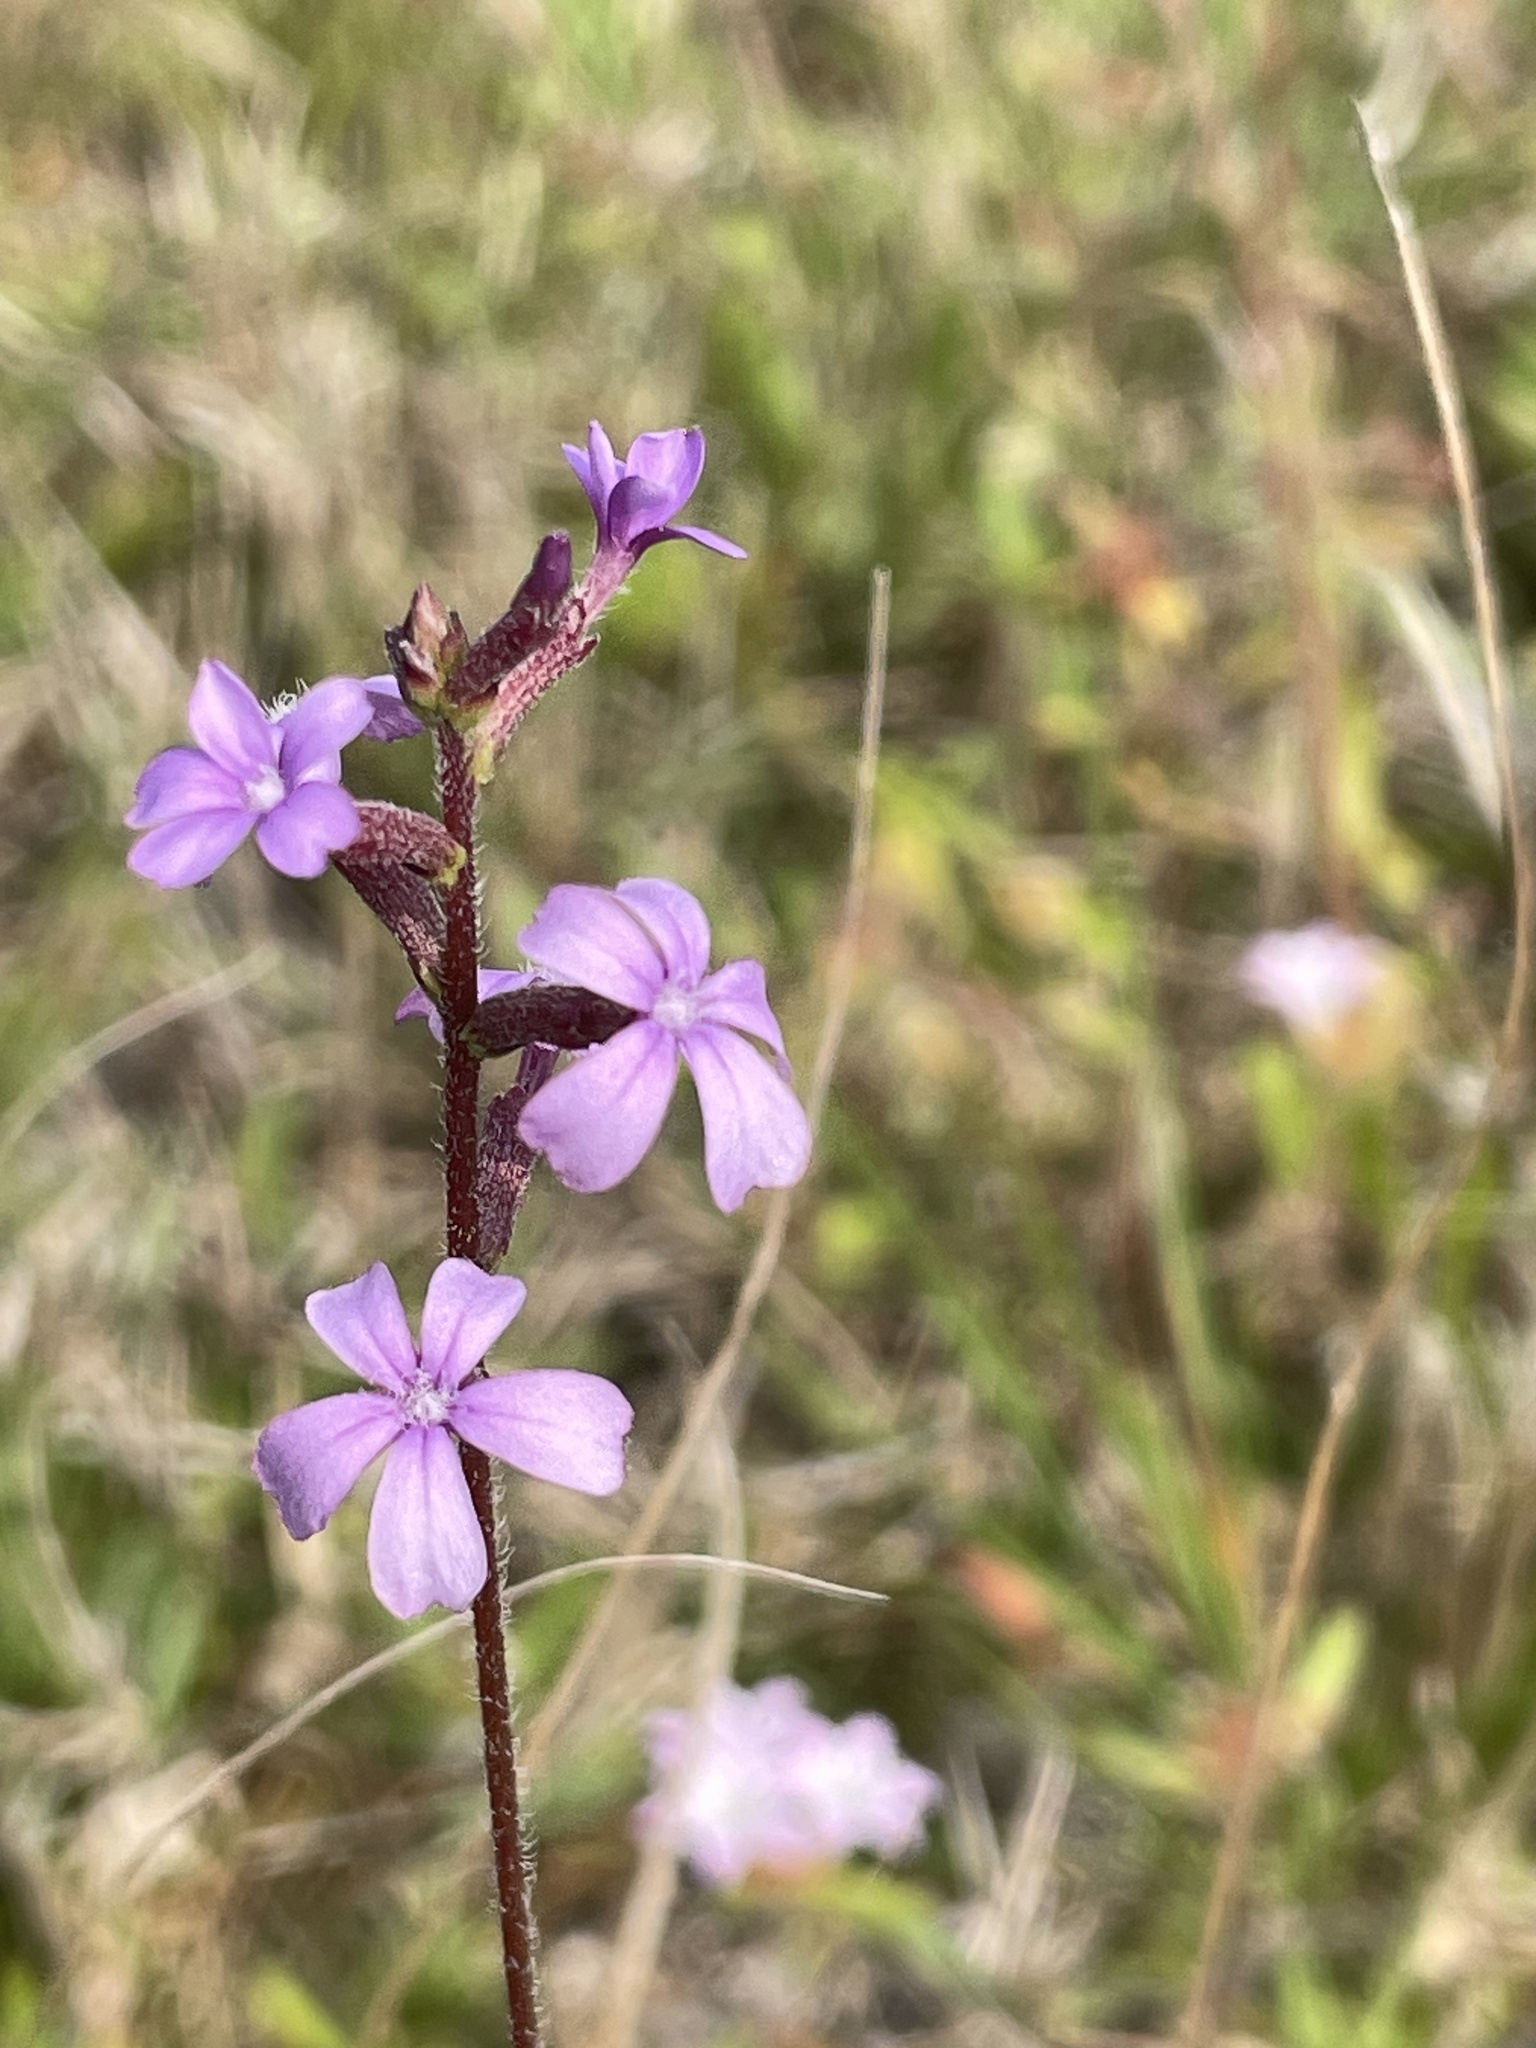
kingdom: Plantae
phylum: Tracheophyta
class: Magnoliopsida
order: Lamiales
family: Orobanchaceae
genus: Buchnera
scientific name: Buchnera floridana
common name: Florida bluehearts
